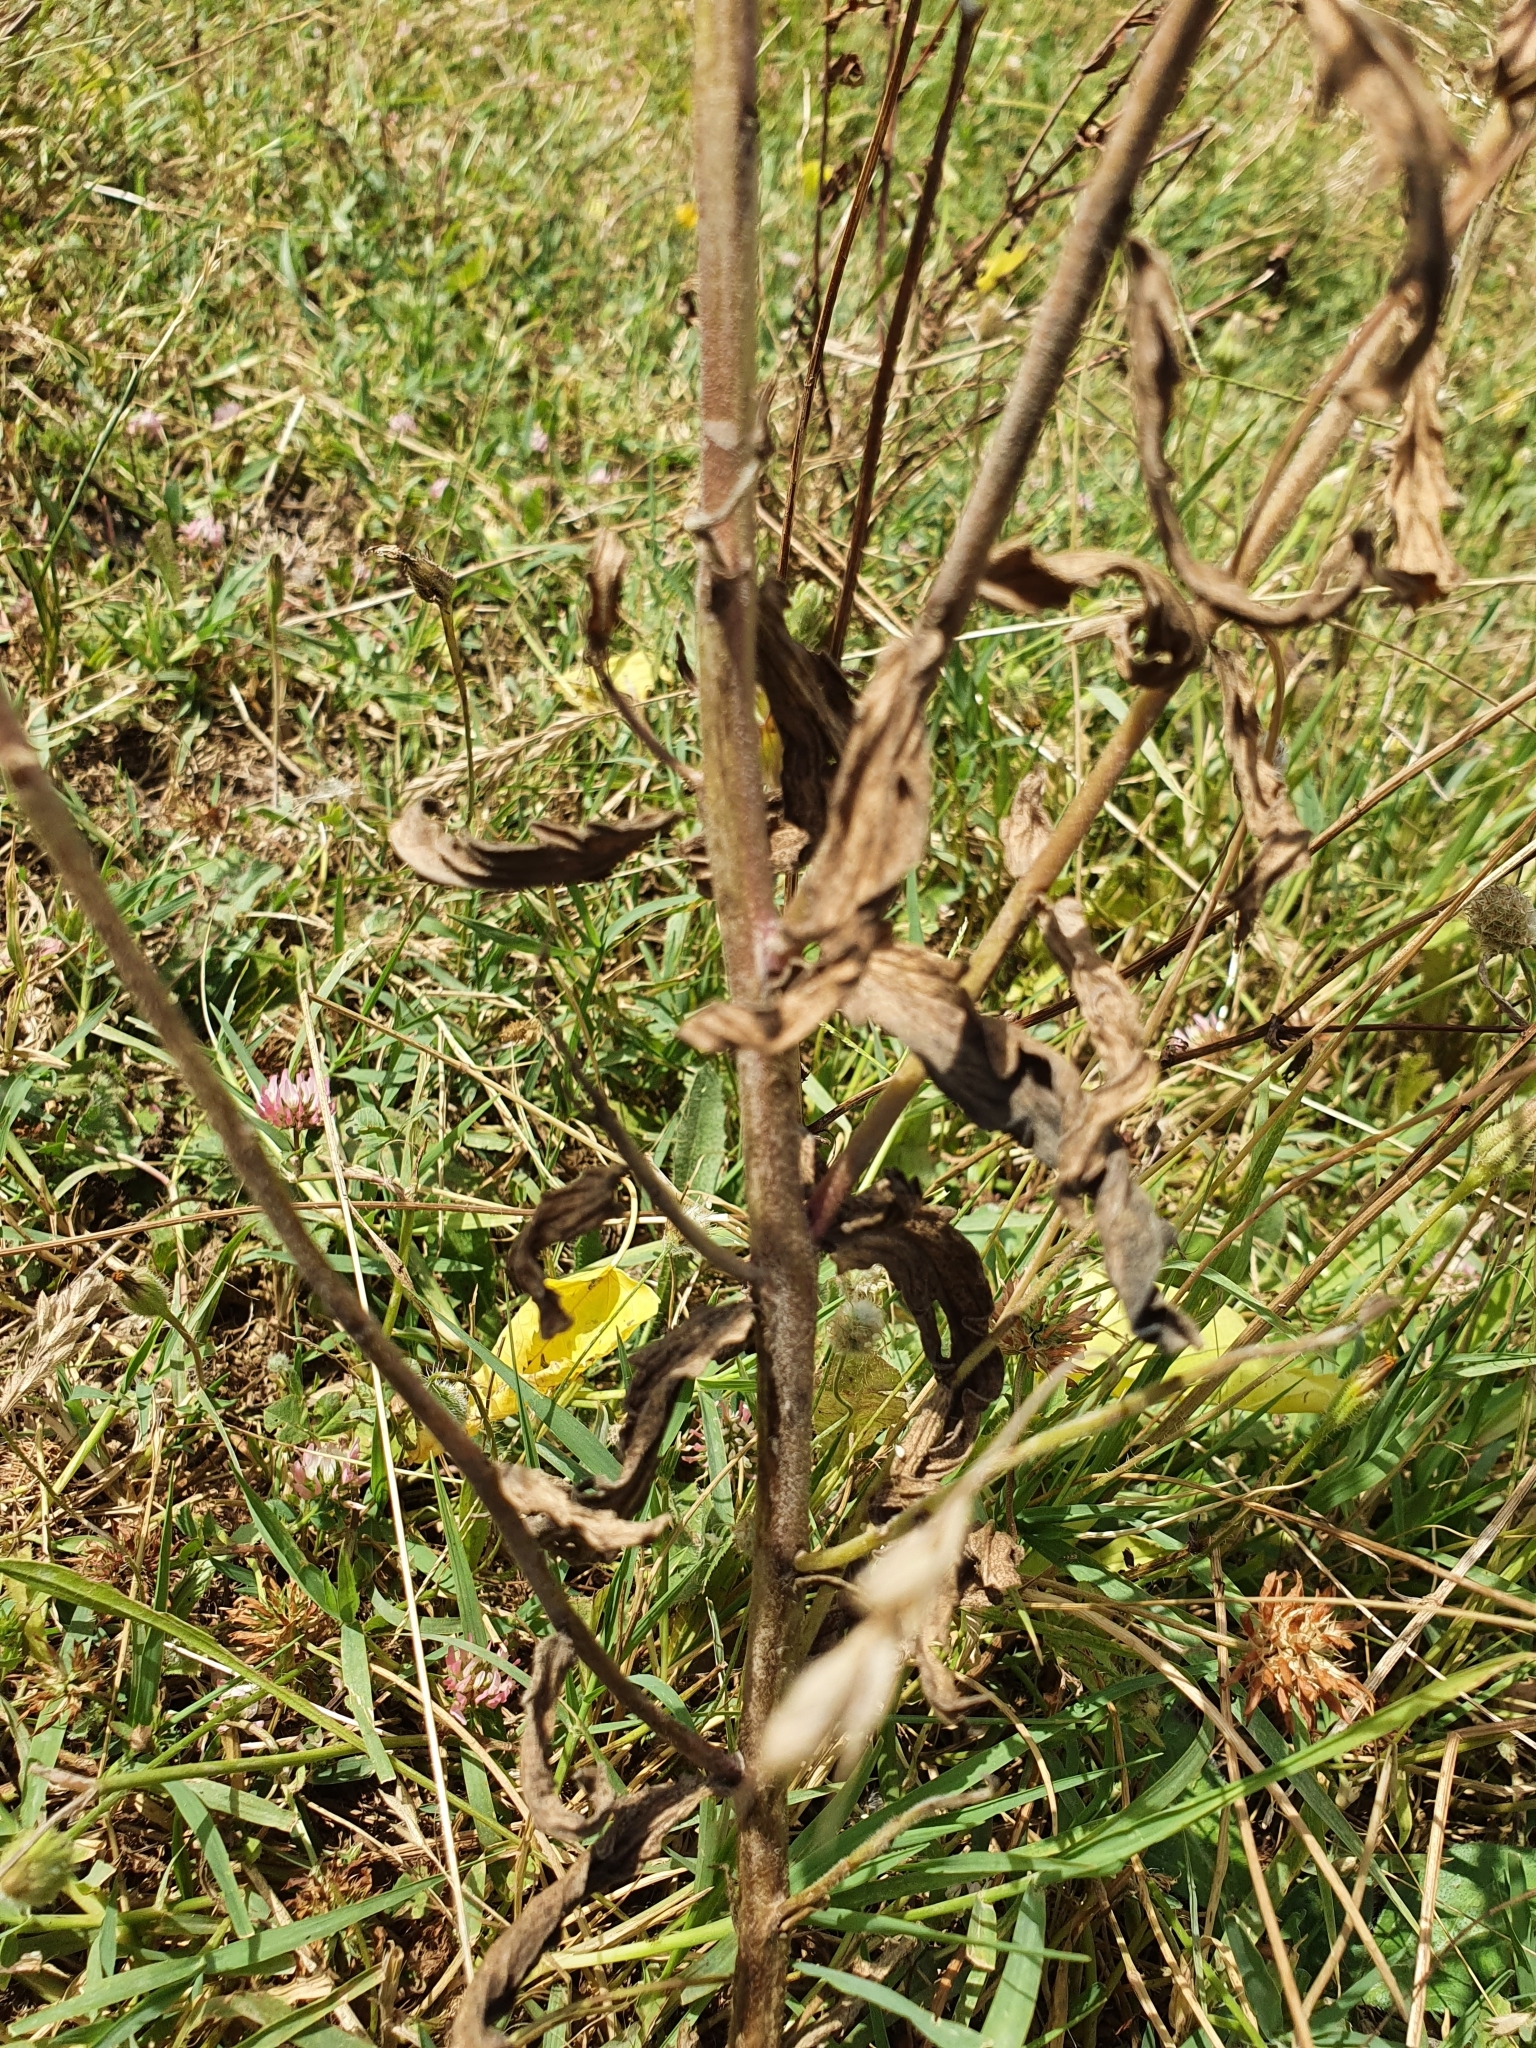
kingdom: Plantae
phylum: Tracheophyta
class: Magnoliopsida
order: Lamiales
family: Orobanchaceae
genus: Bellardia
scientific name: Bellardia trixago
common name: Mediterranean lineseed
